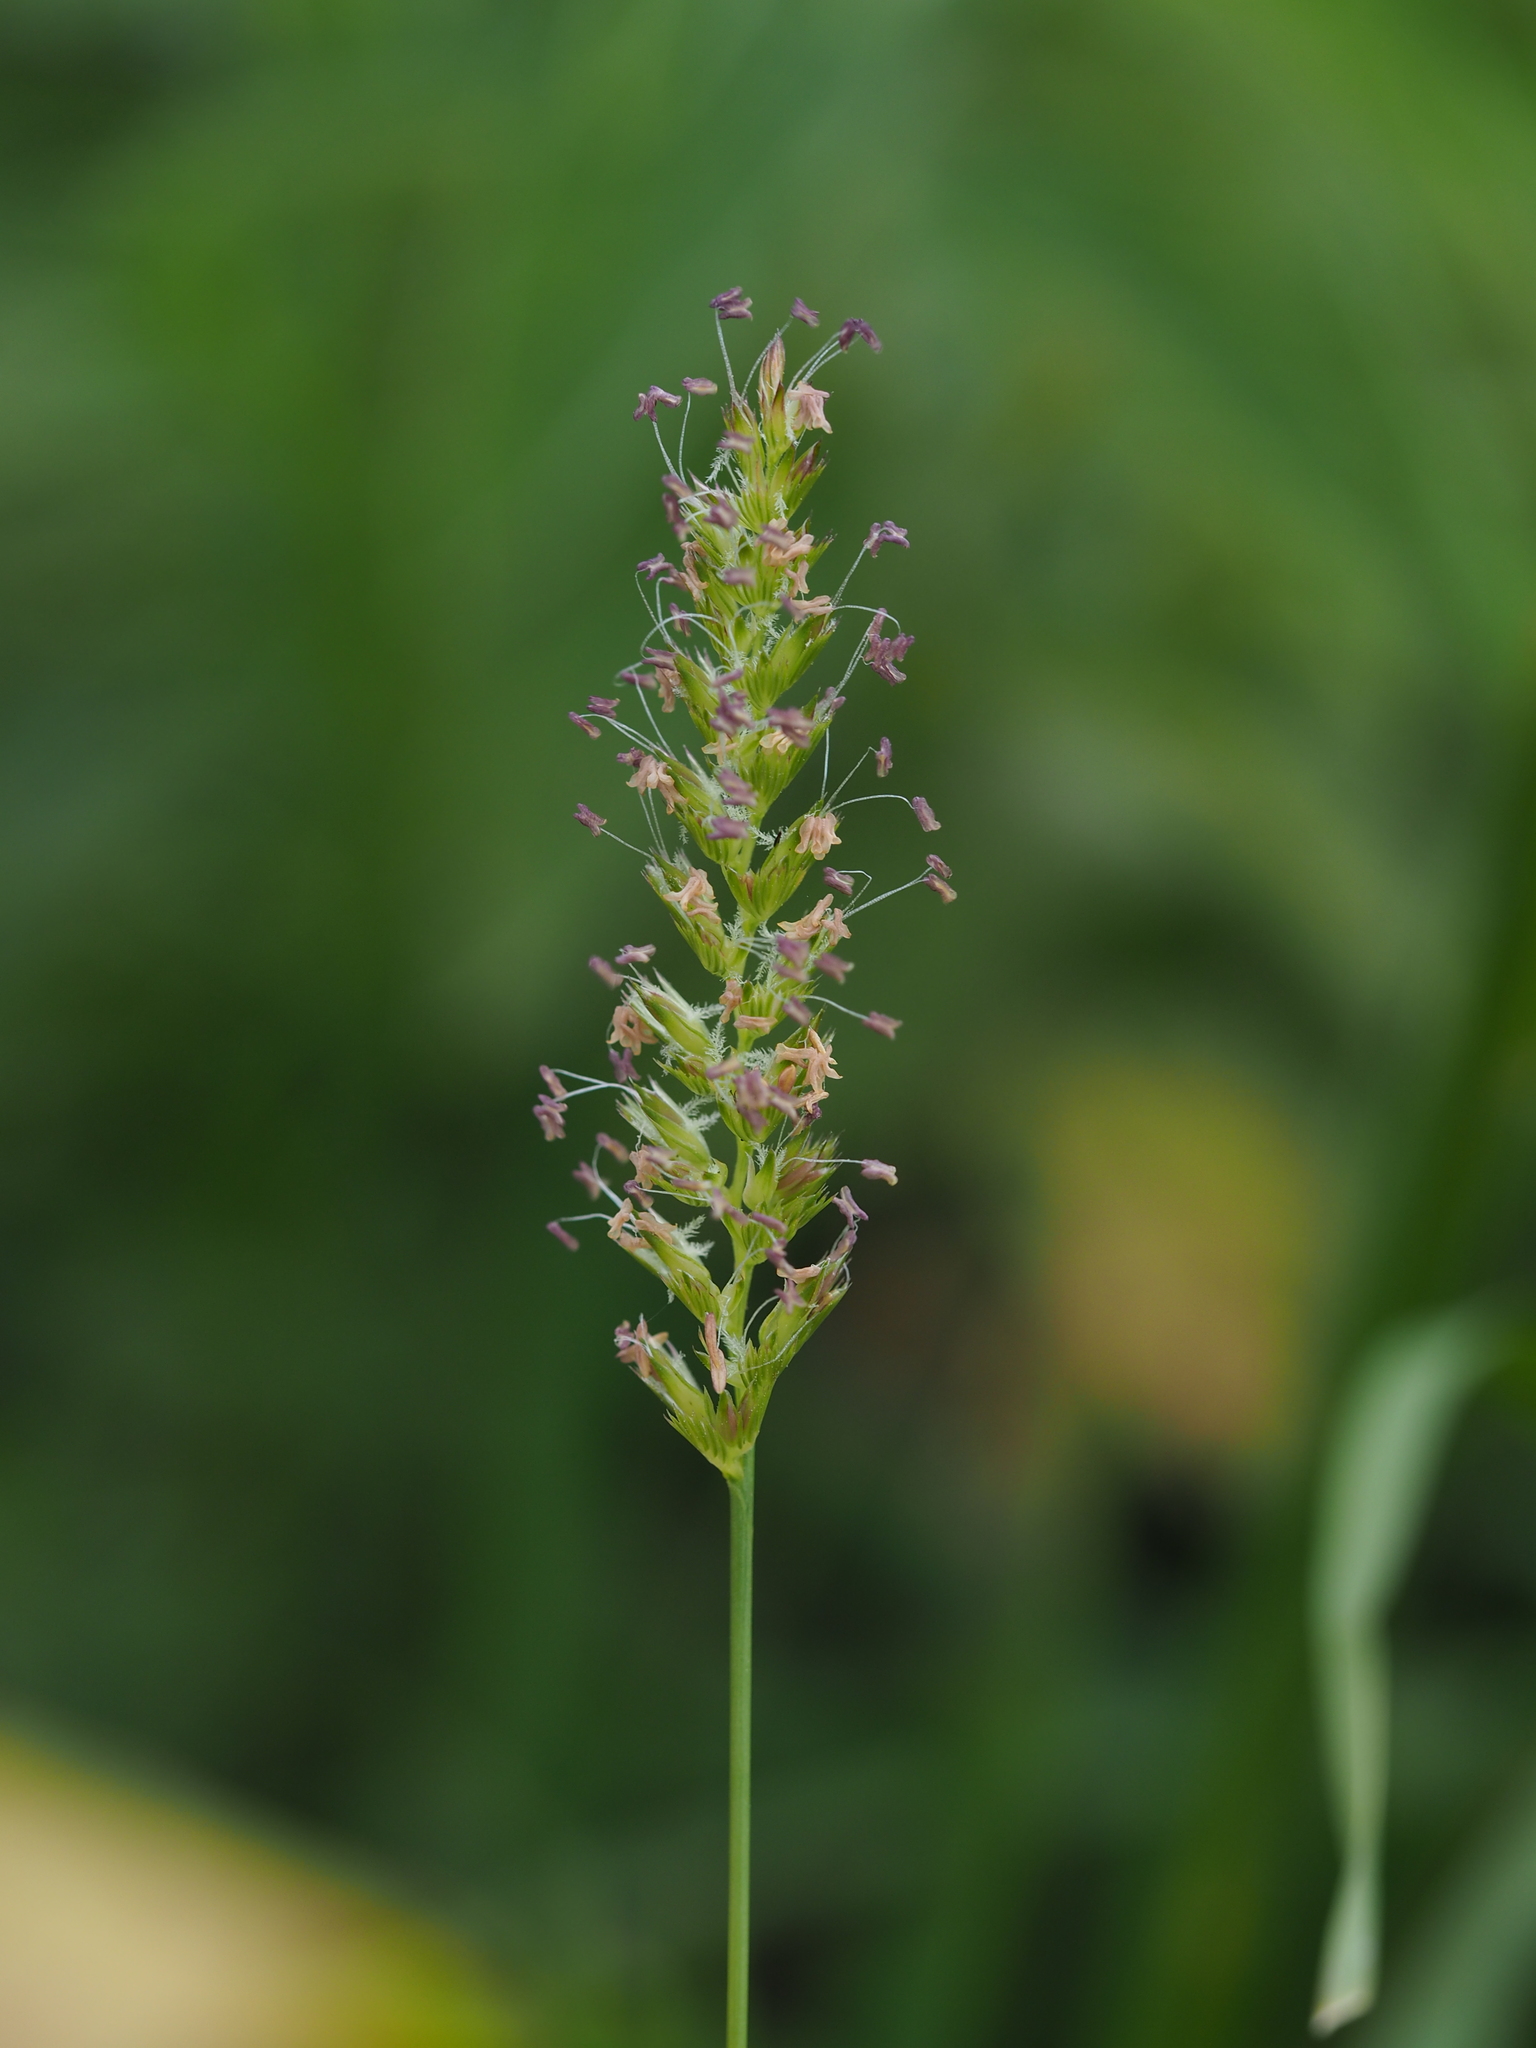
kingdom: Plantae
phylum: Tracheophyta
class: Liliopsida
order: Poales
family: Poaceae
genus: Cynosurus
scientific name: Cynosurus cristatus
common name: Crested dog's-tail
